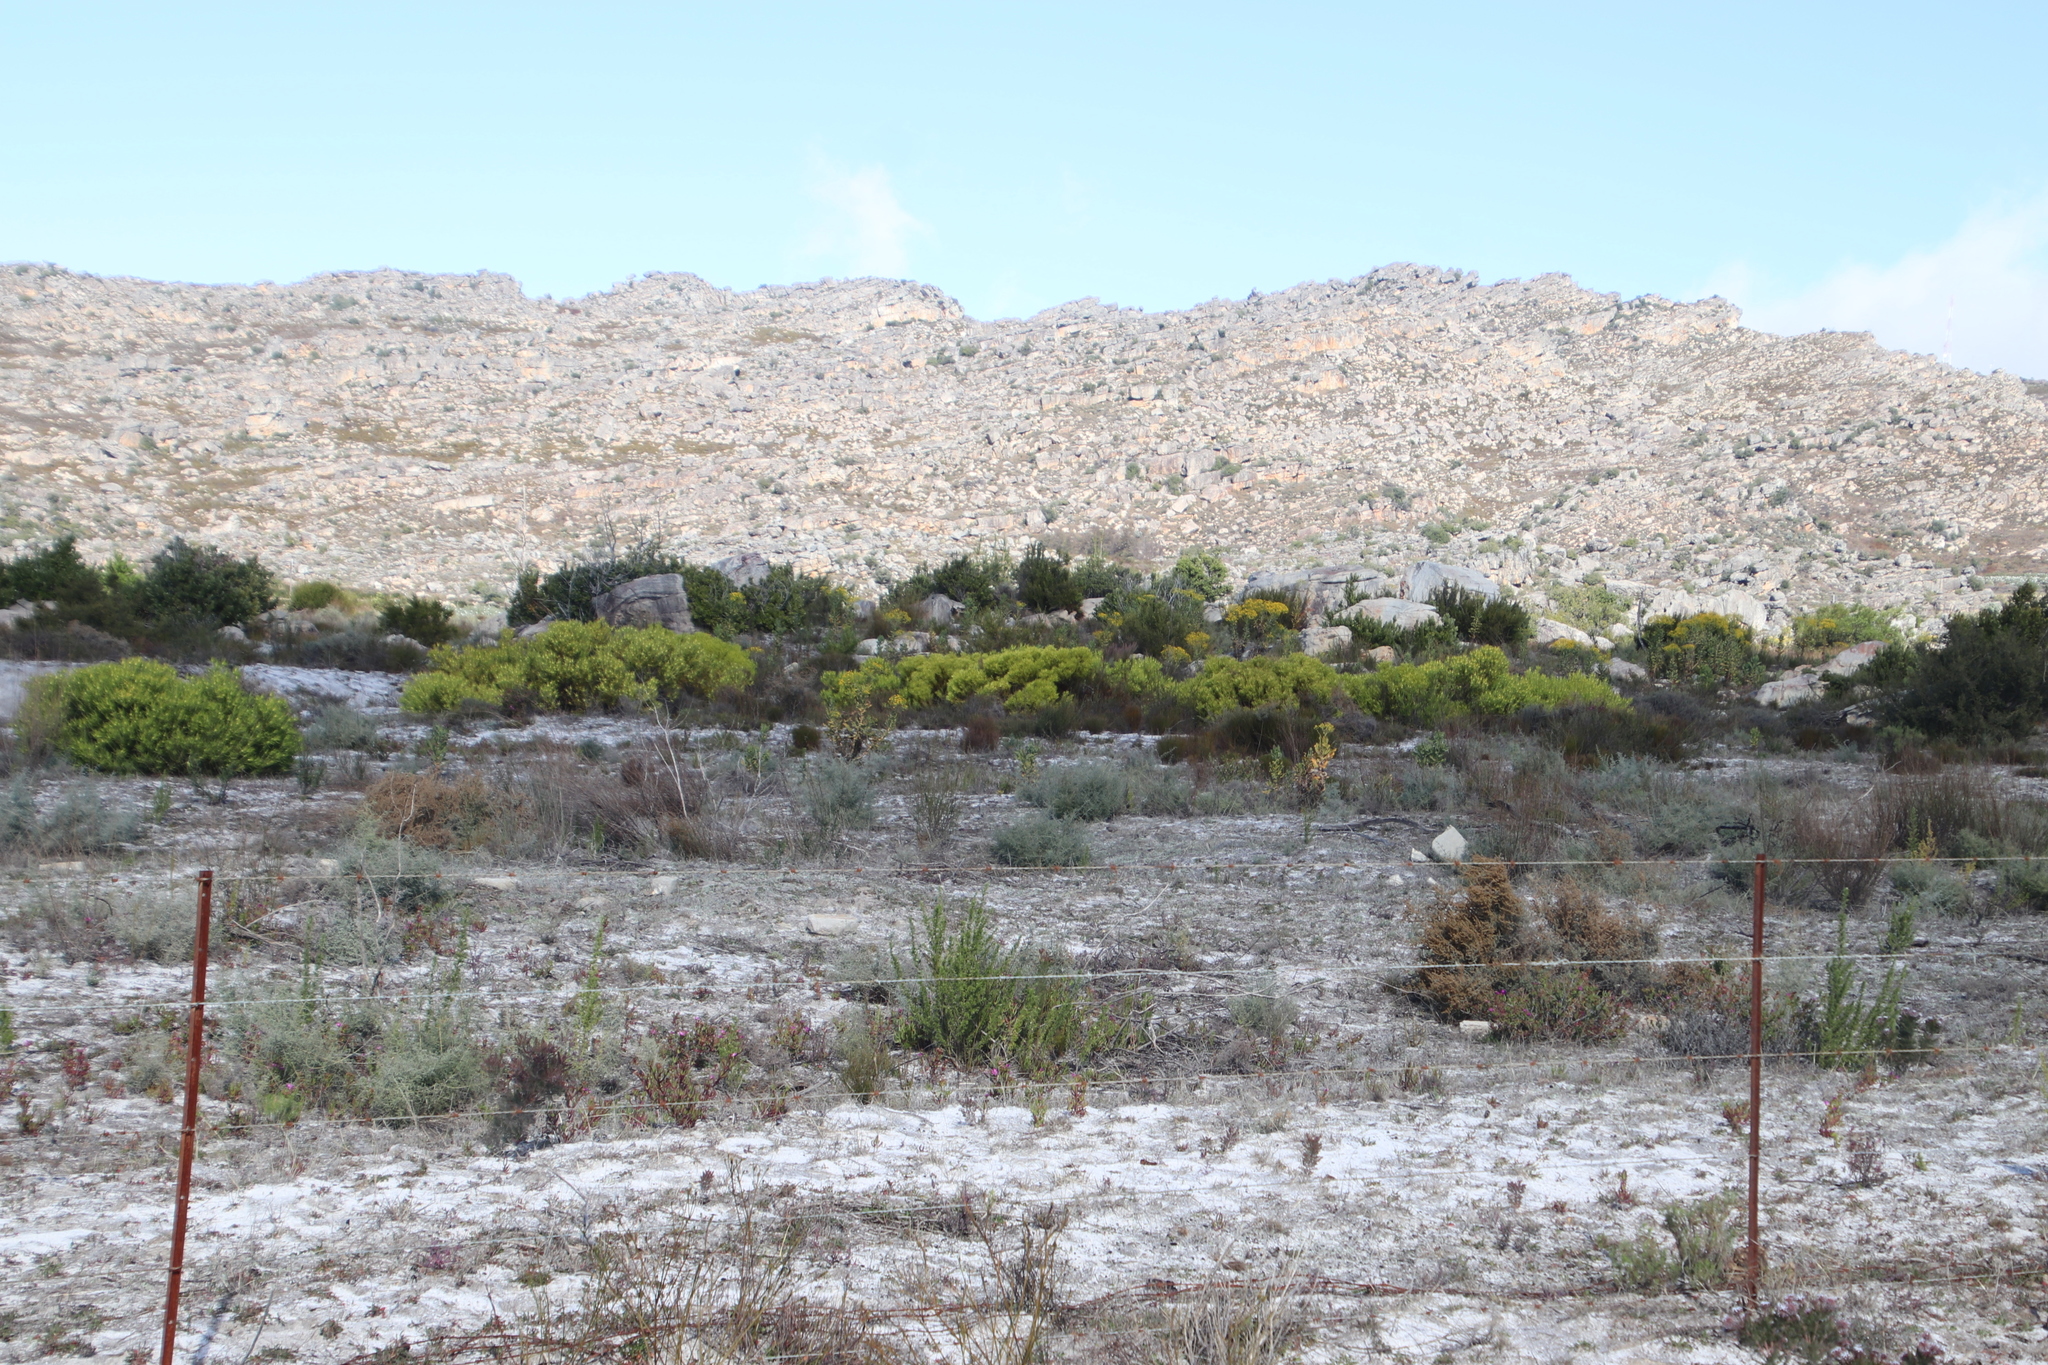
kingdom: Plantae
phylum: Tracheophyta
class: Magnoliopsida
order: Proteales
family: Proteaceae
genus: Leucadendron
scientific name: Leucadendron salignum
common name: Common sunshine conebush
